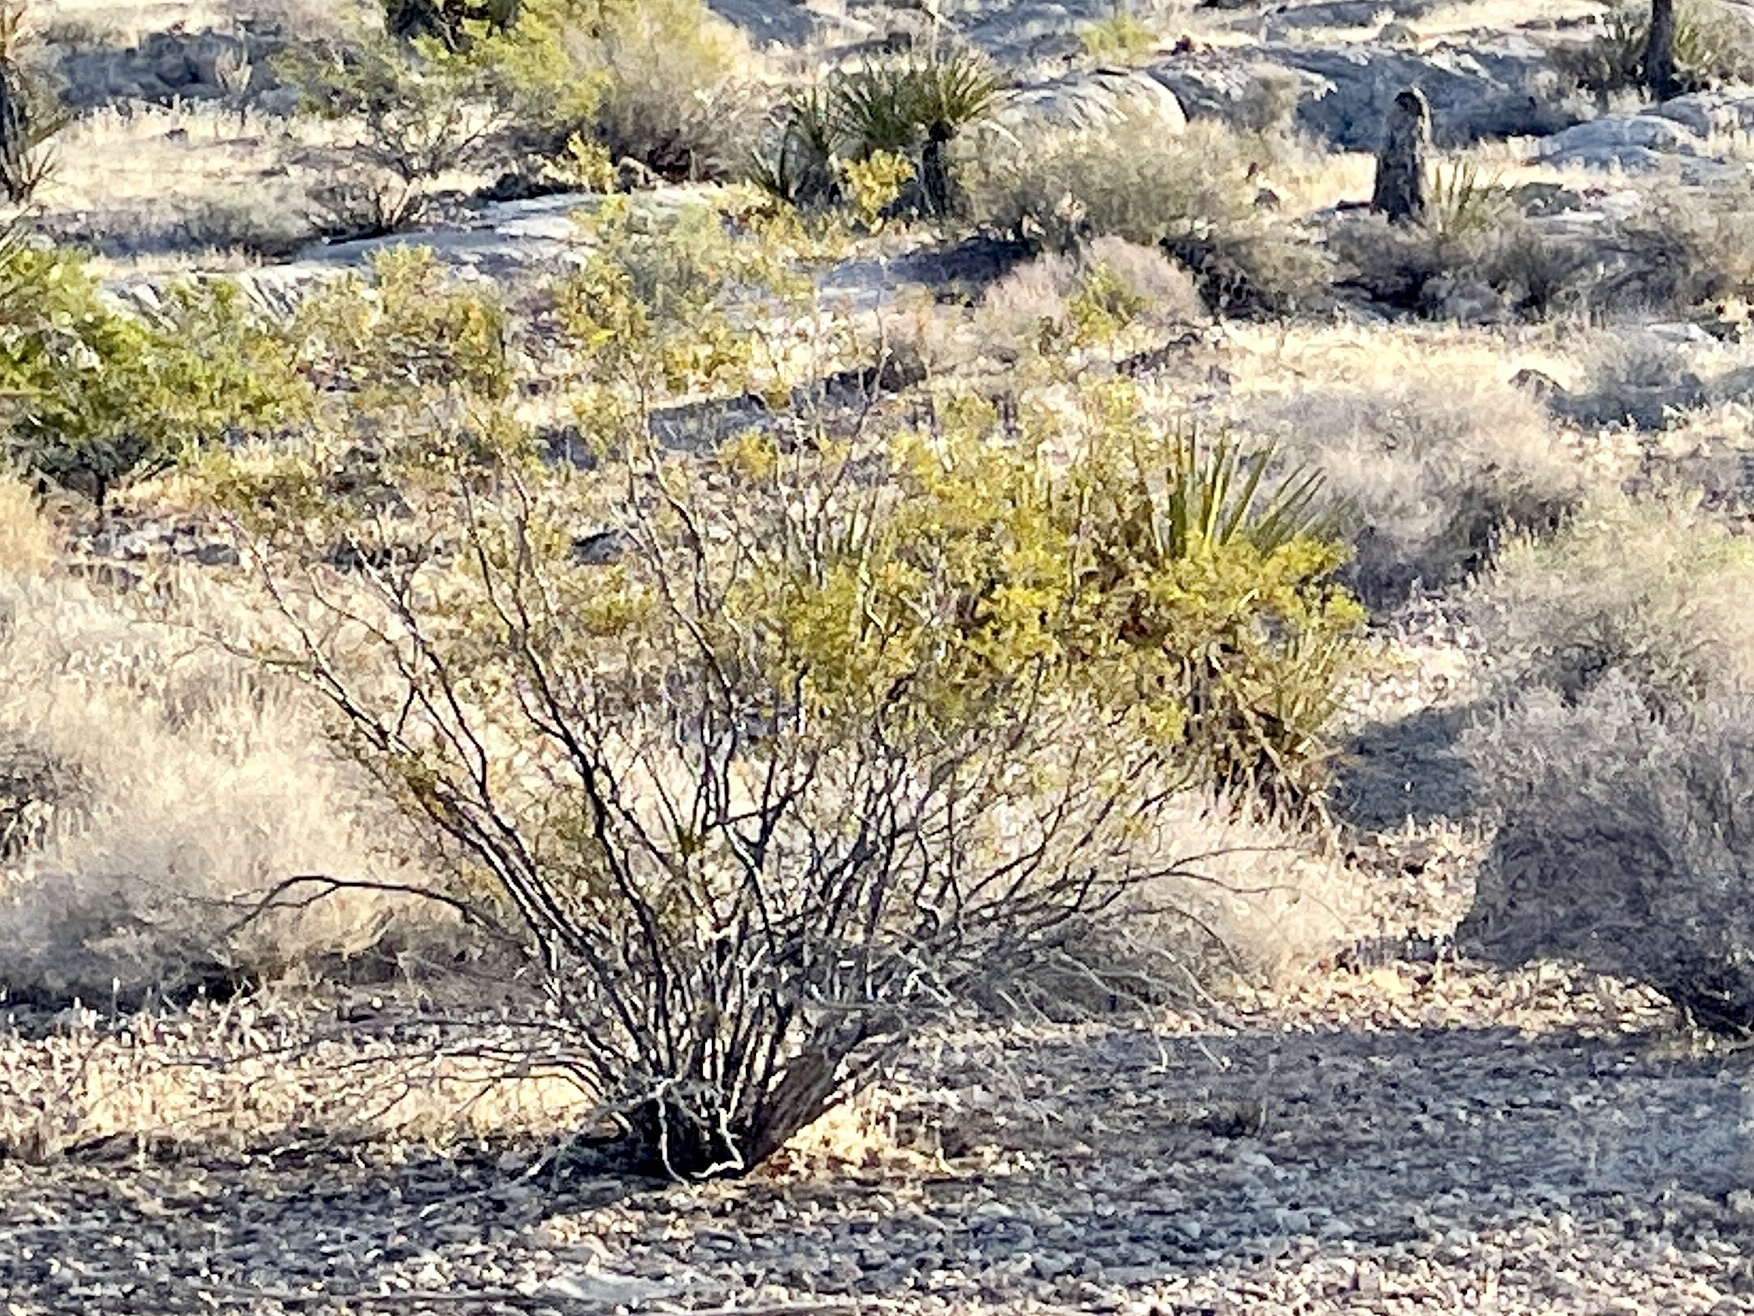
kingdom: Plantae
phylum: Tracheophyta
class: Magnoliopsida
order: Zygophyllales
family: Zygophyllaceae
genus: Larrea
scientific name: Larrea tridentata
